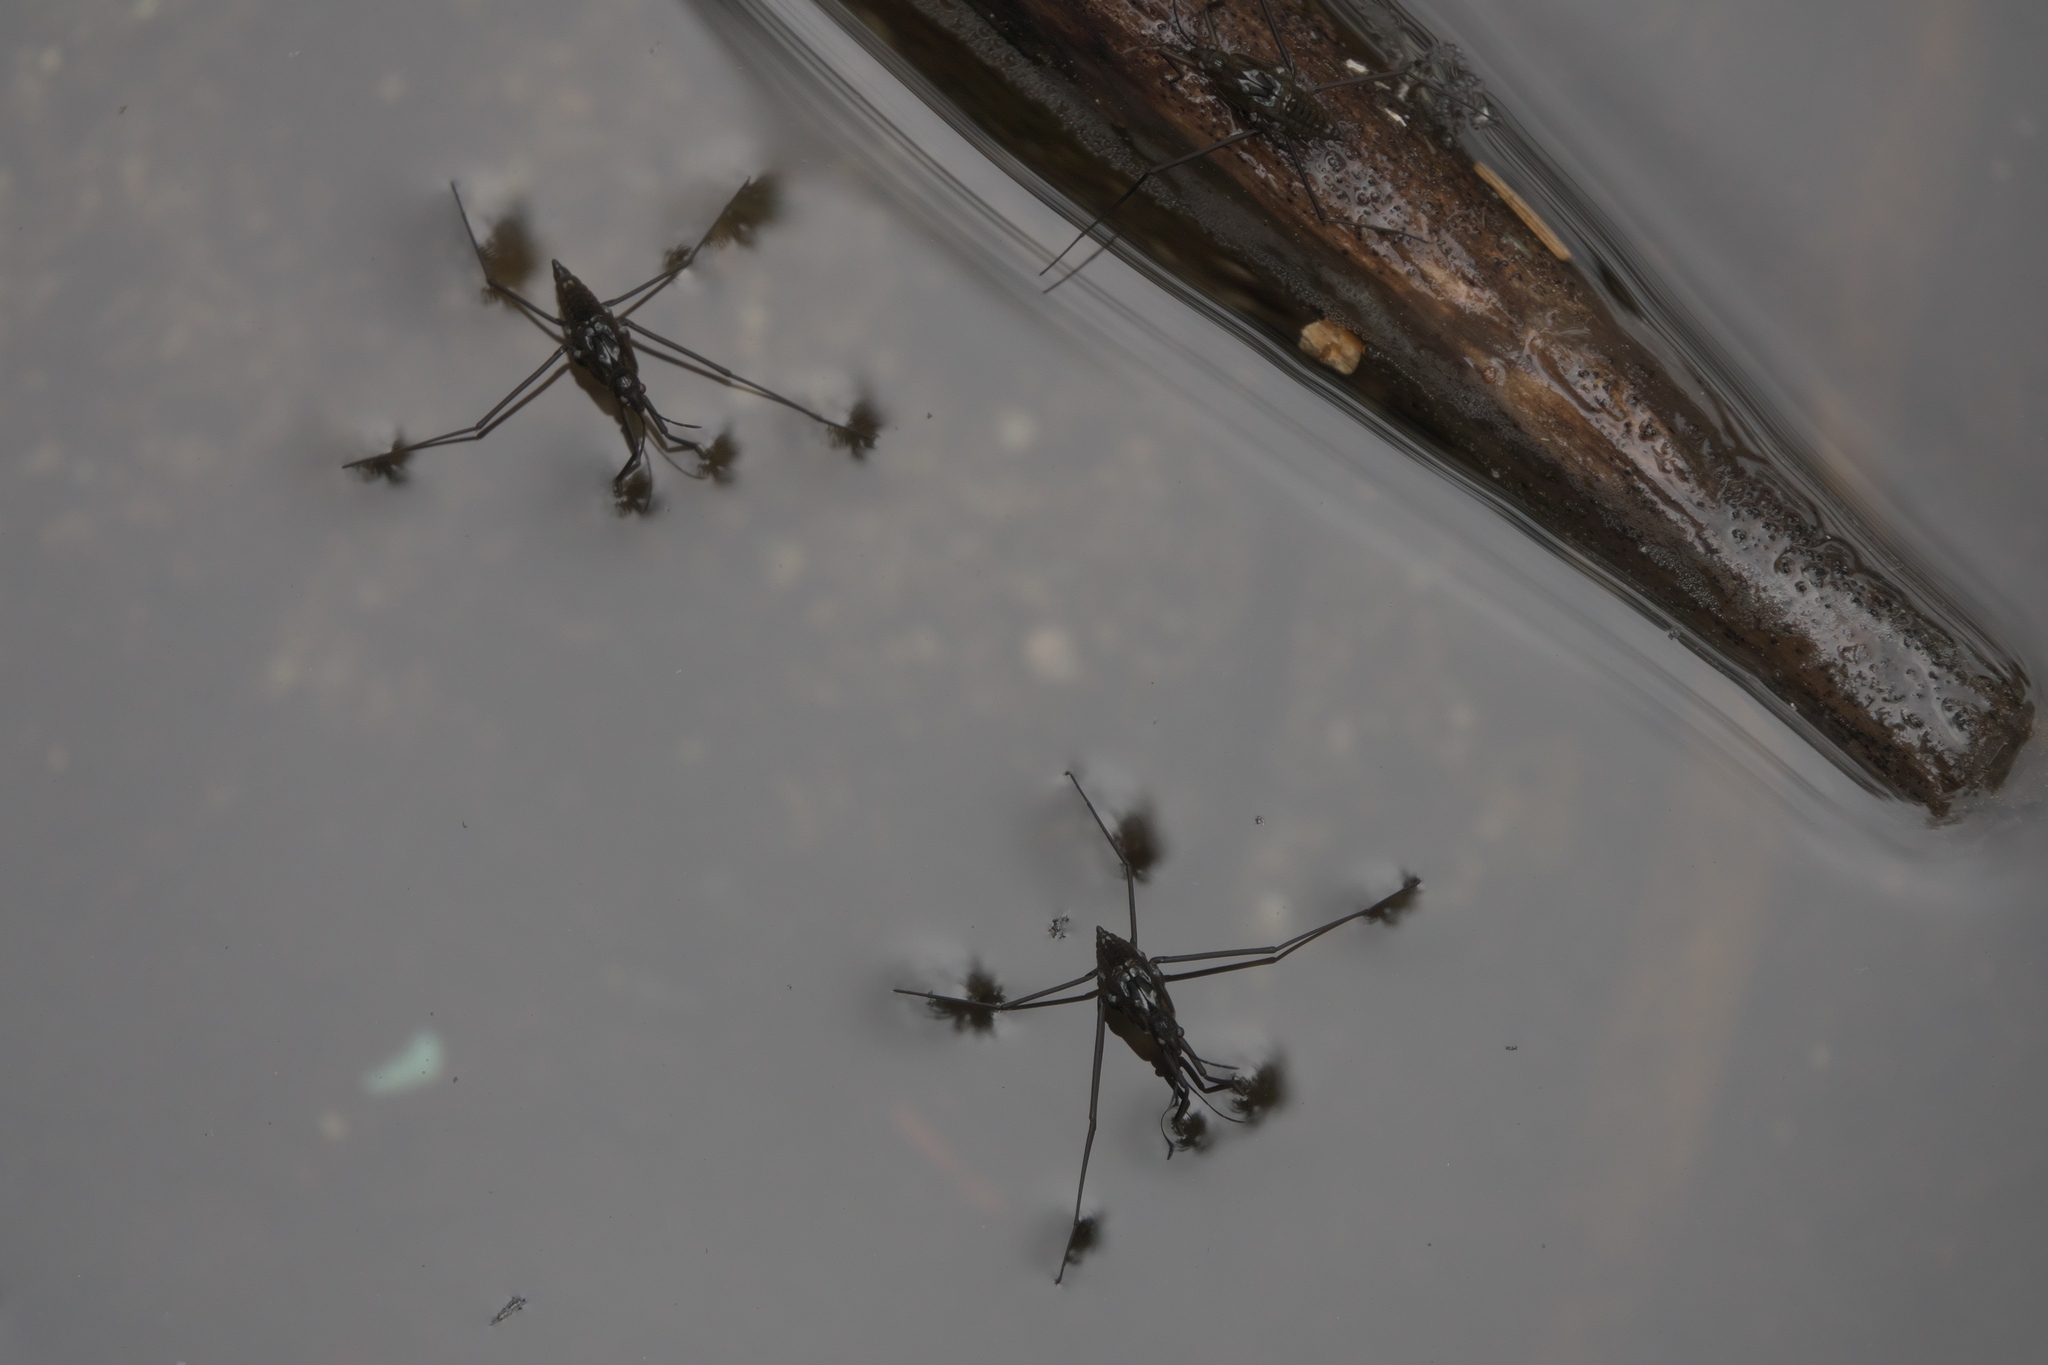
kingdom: Animalia
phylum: Arthropoda
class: Insecta
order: Hemiptera
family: Gerridae
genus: Aquarius
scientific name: Aquarius remigis
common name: Common water strider
